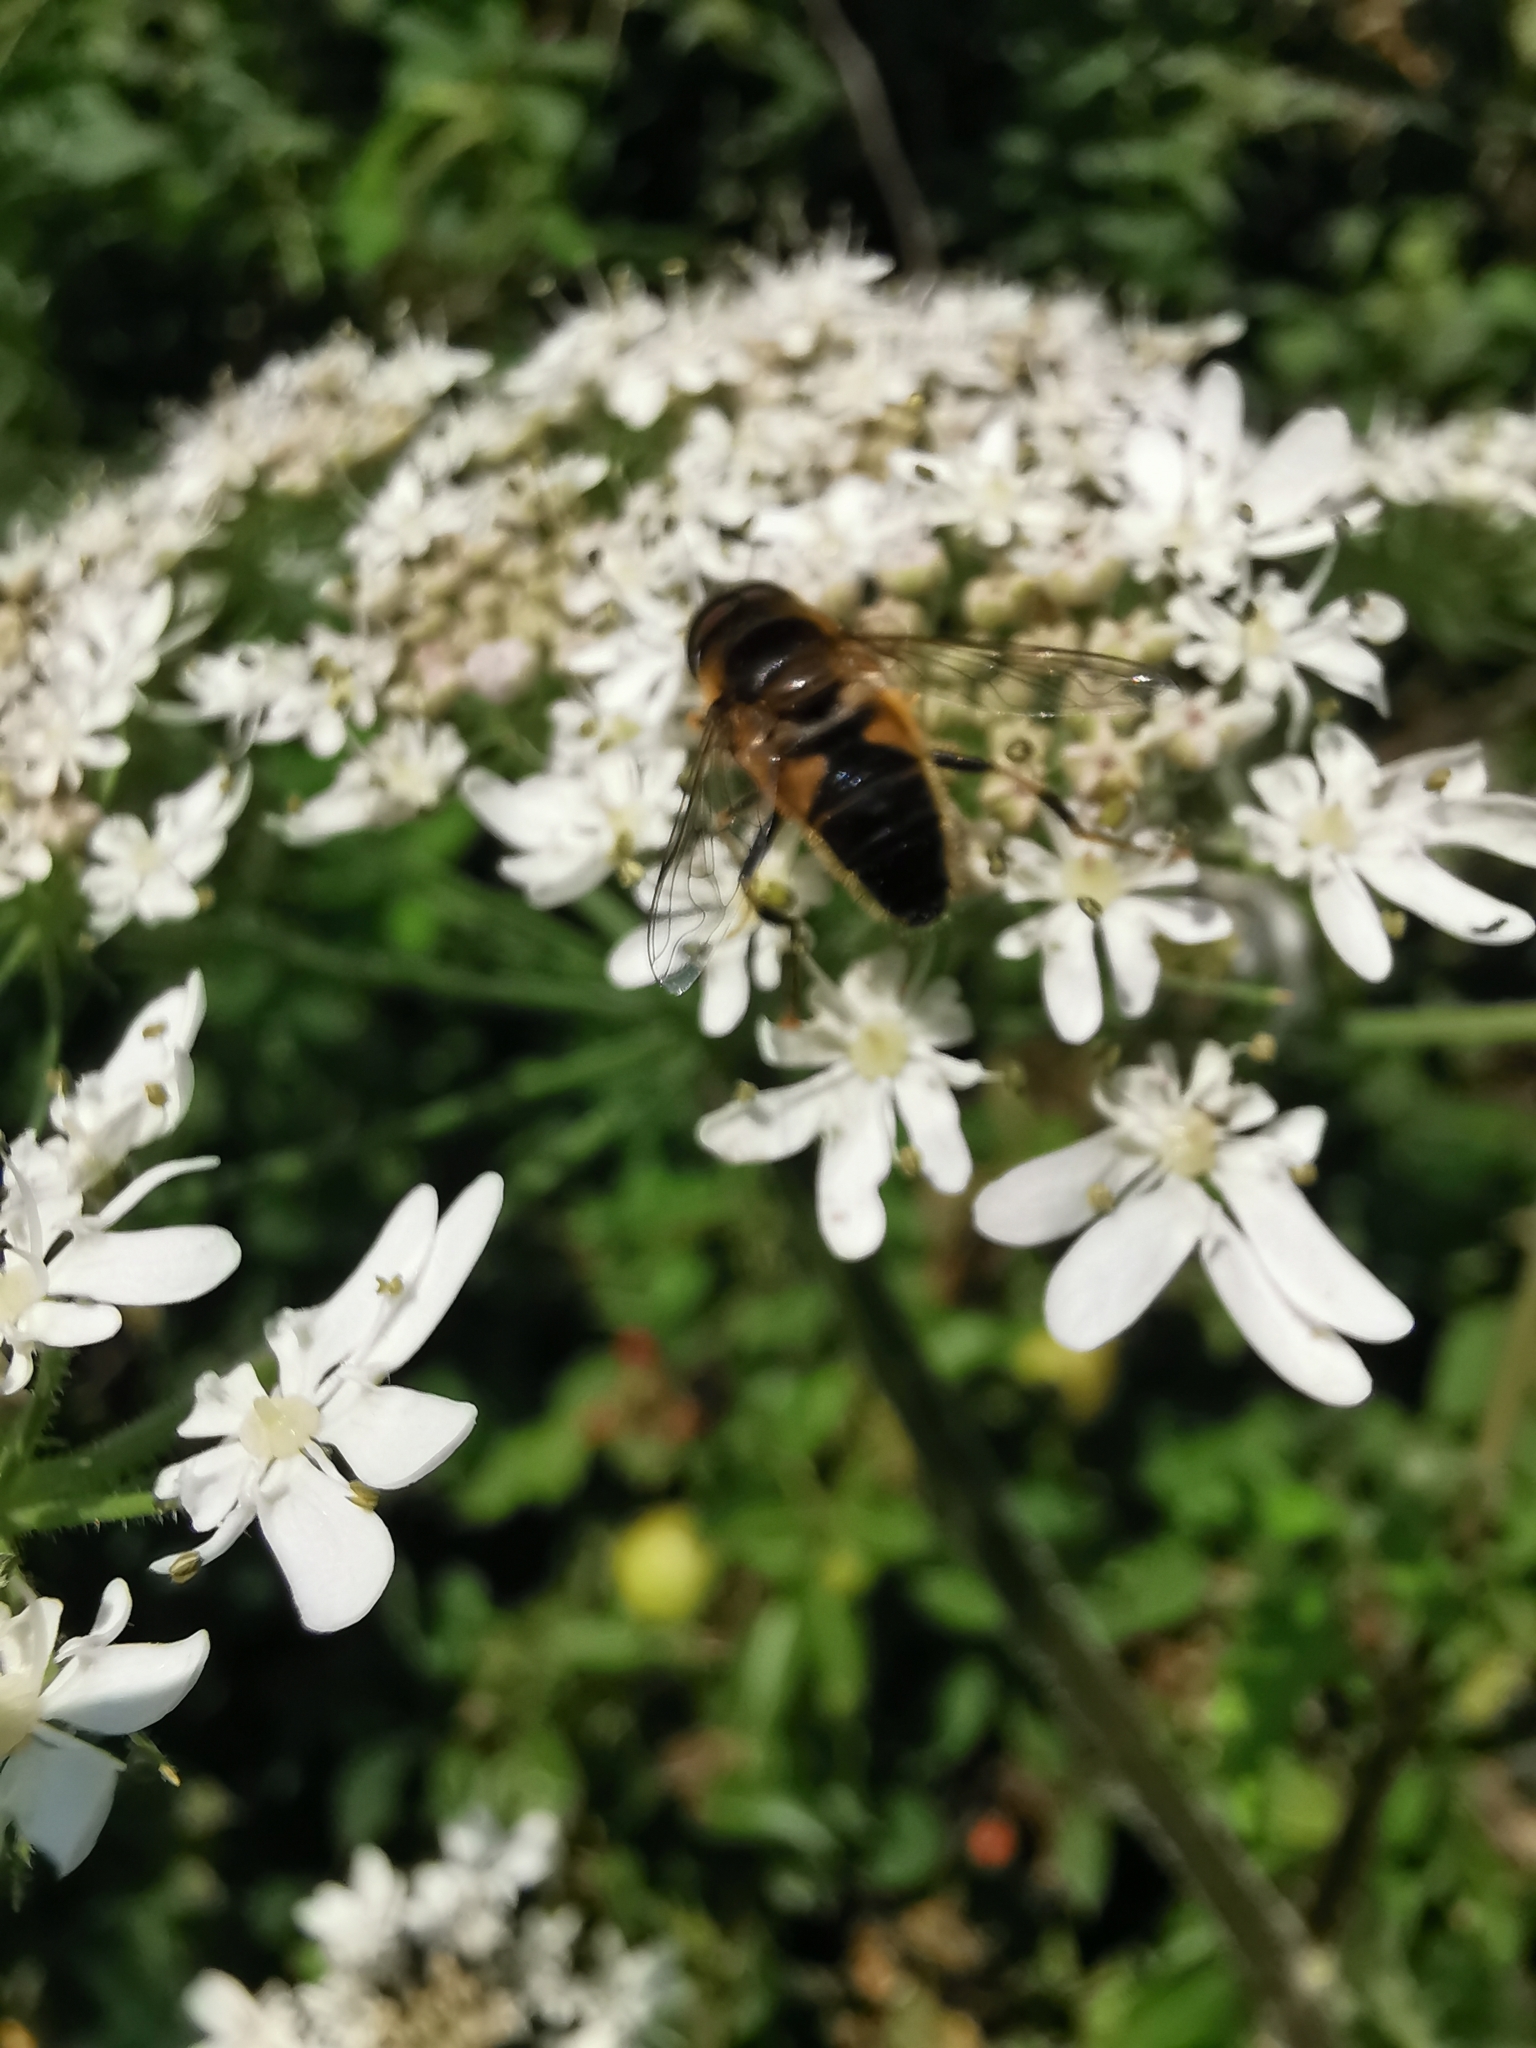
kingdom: Animalia
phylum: Arthropoda
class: Insecta
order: Diptera
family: Syrphidae
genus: Eristalis
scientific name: Eristalis pertinax
